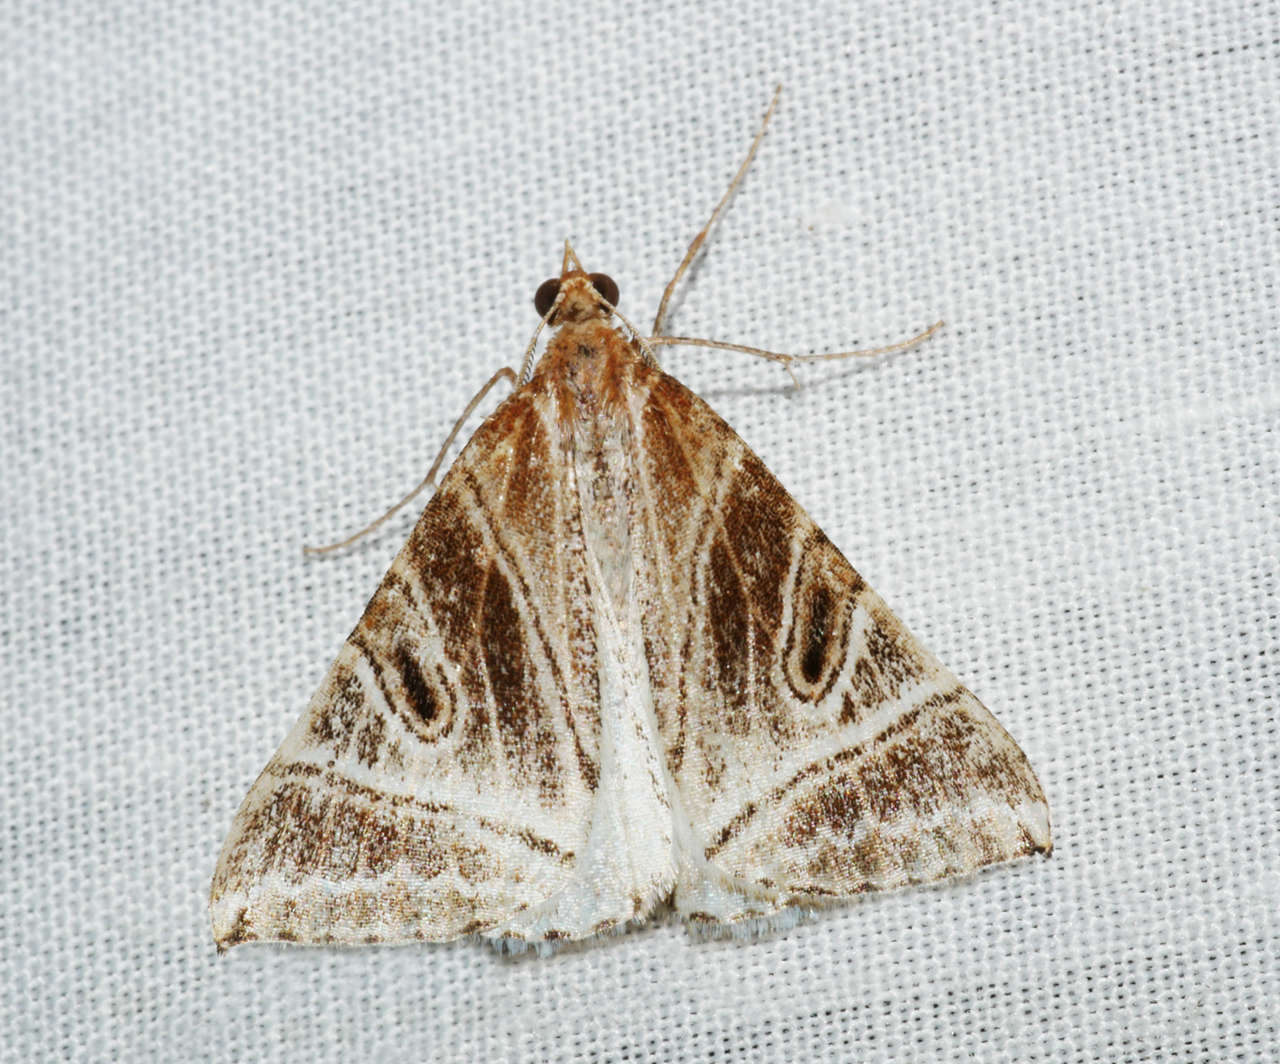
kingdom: Animalia
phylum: Arthropoda
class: Insecta
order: Lepidoptera
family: Geometridae
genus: Phrataria
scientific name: Phrataria replicataria
